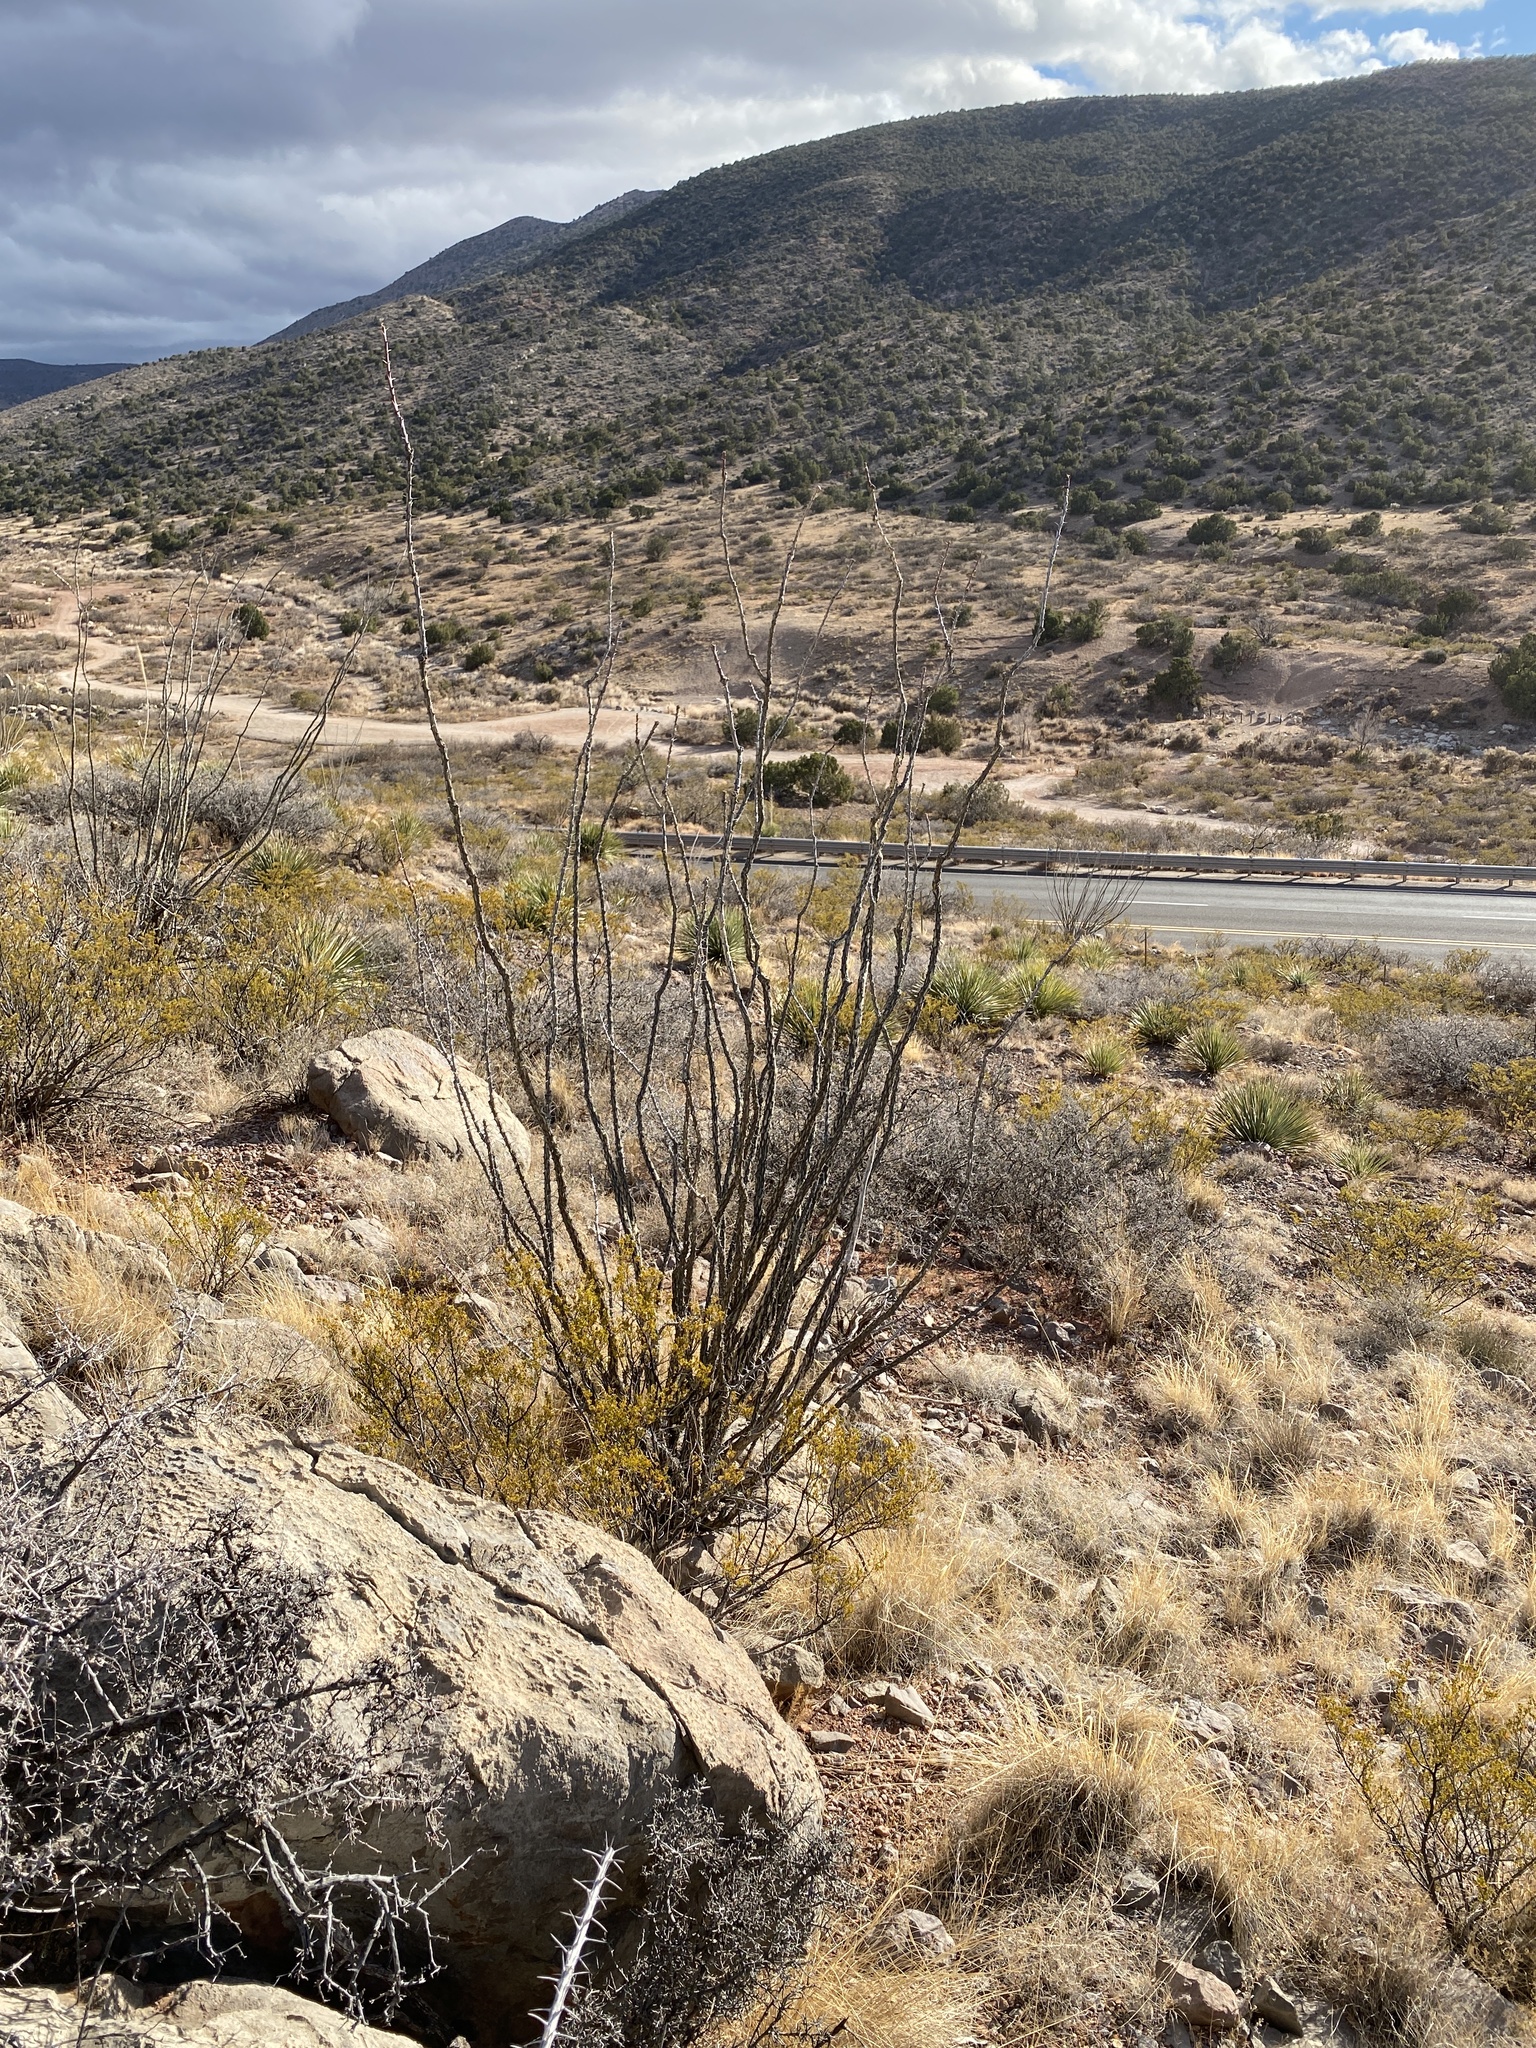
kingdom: Plantae
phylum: Tracheophyta
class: Magnoliopsida
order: Ericales
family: Fouquieriaceae
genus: Fouquieria
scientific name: Fouquieria splendens
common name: Vine-cactus
